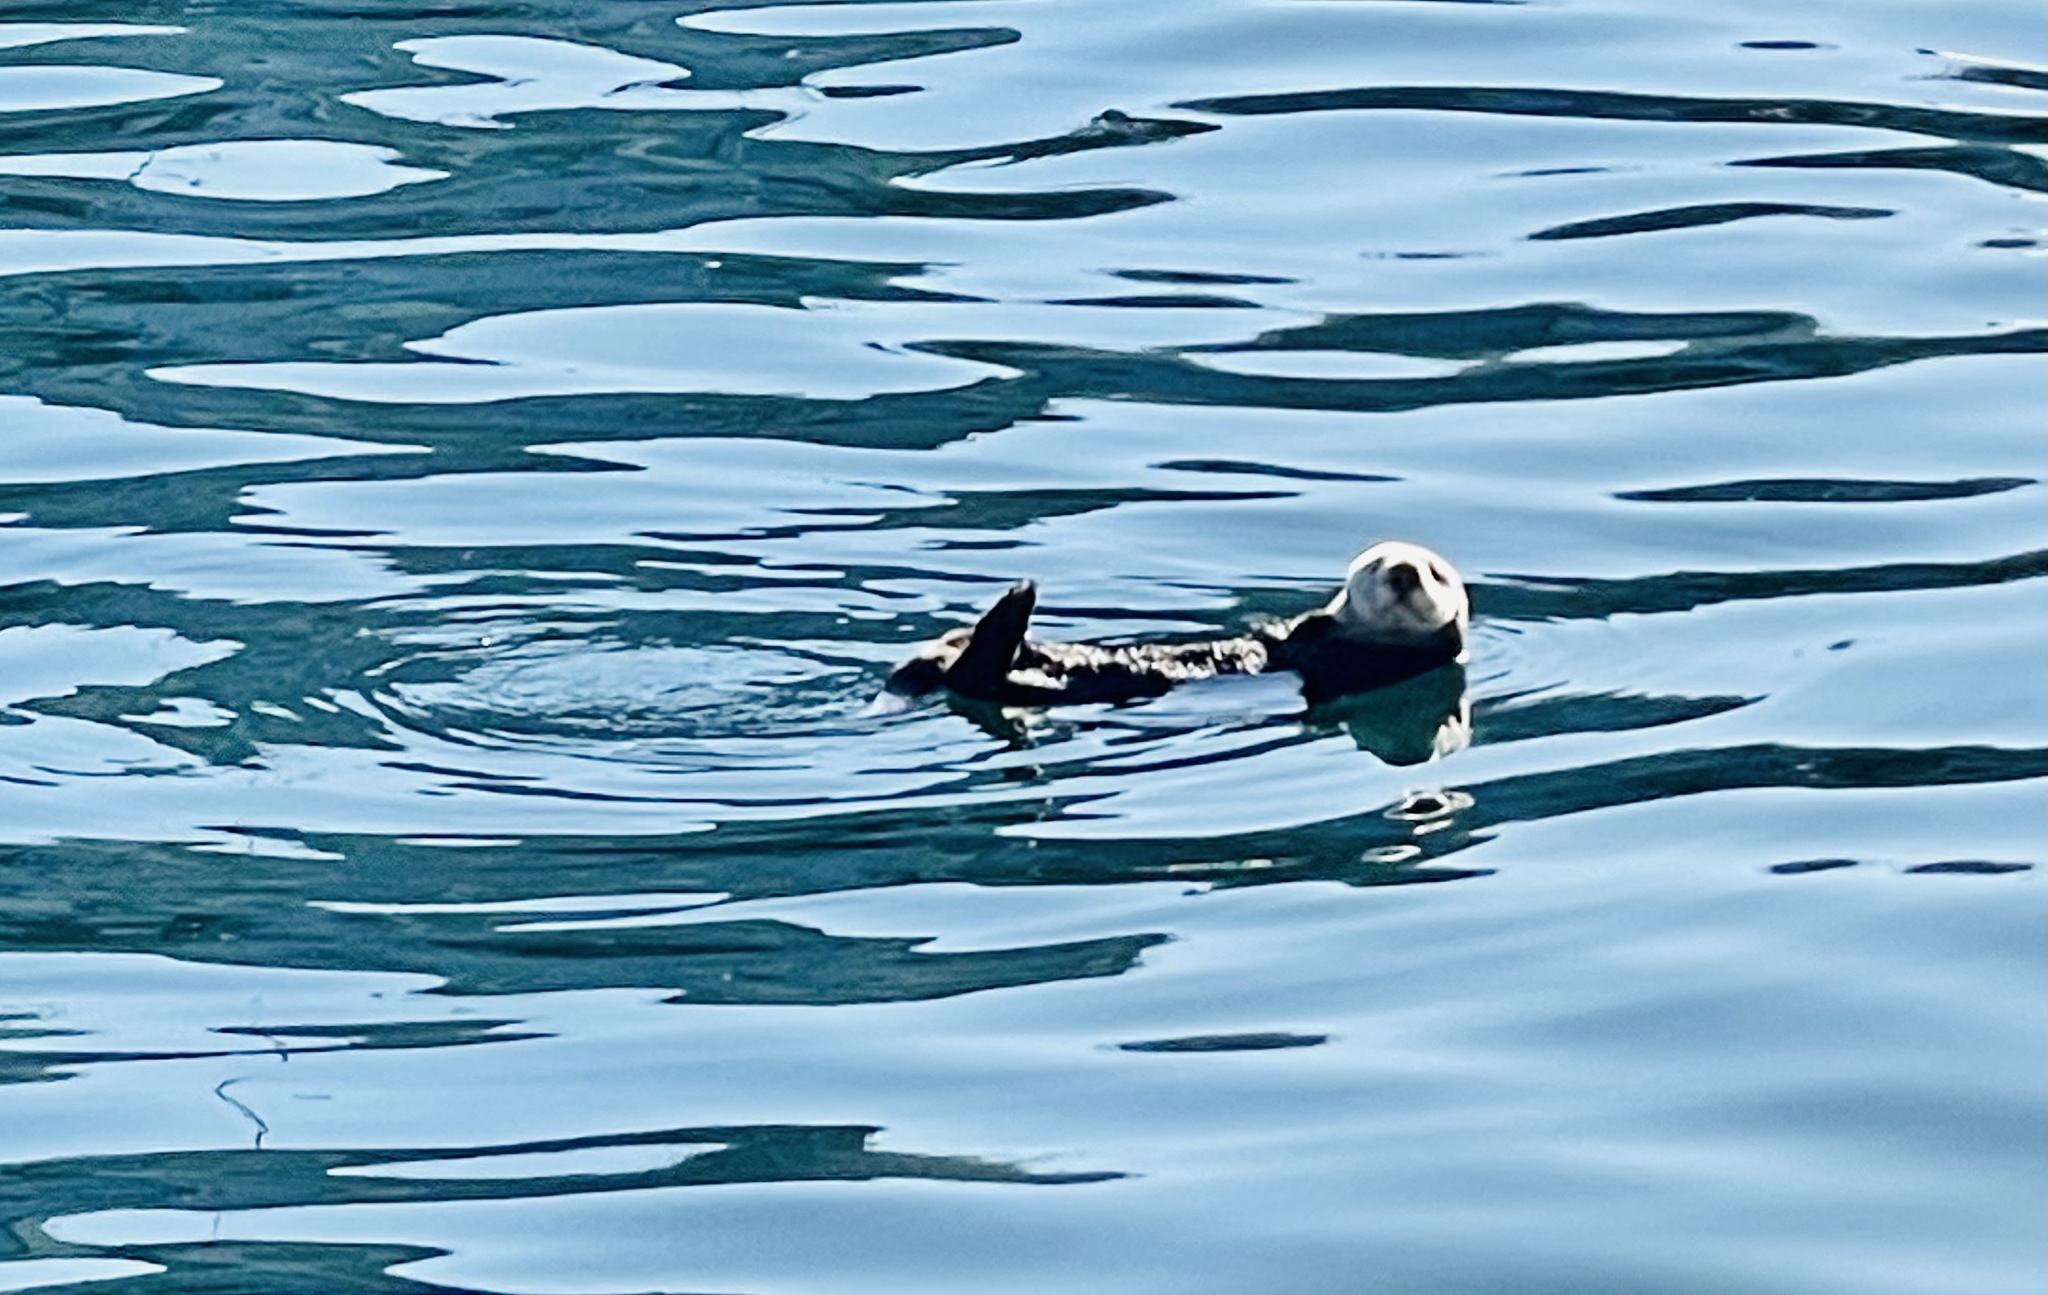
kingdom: Animalia
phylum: Chordata
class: Mammalia
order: Carnivora
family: Mustelidae
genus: Enhydra
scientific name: Enhydra lutris
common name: Sea otter
